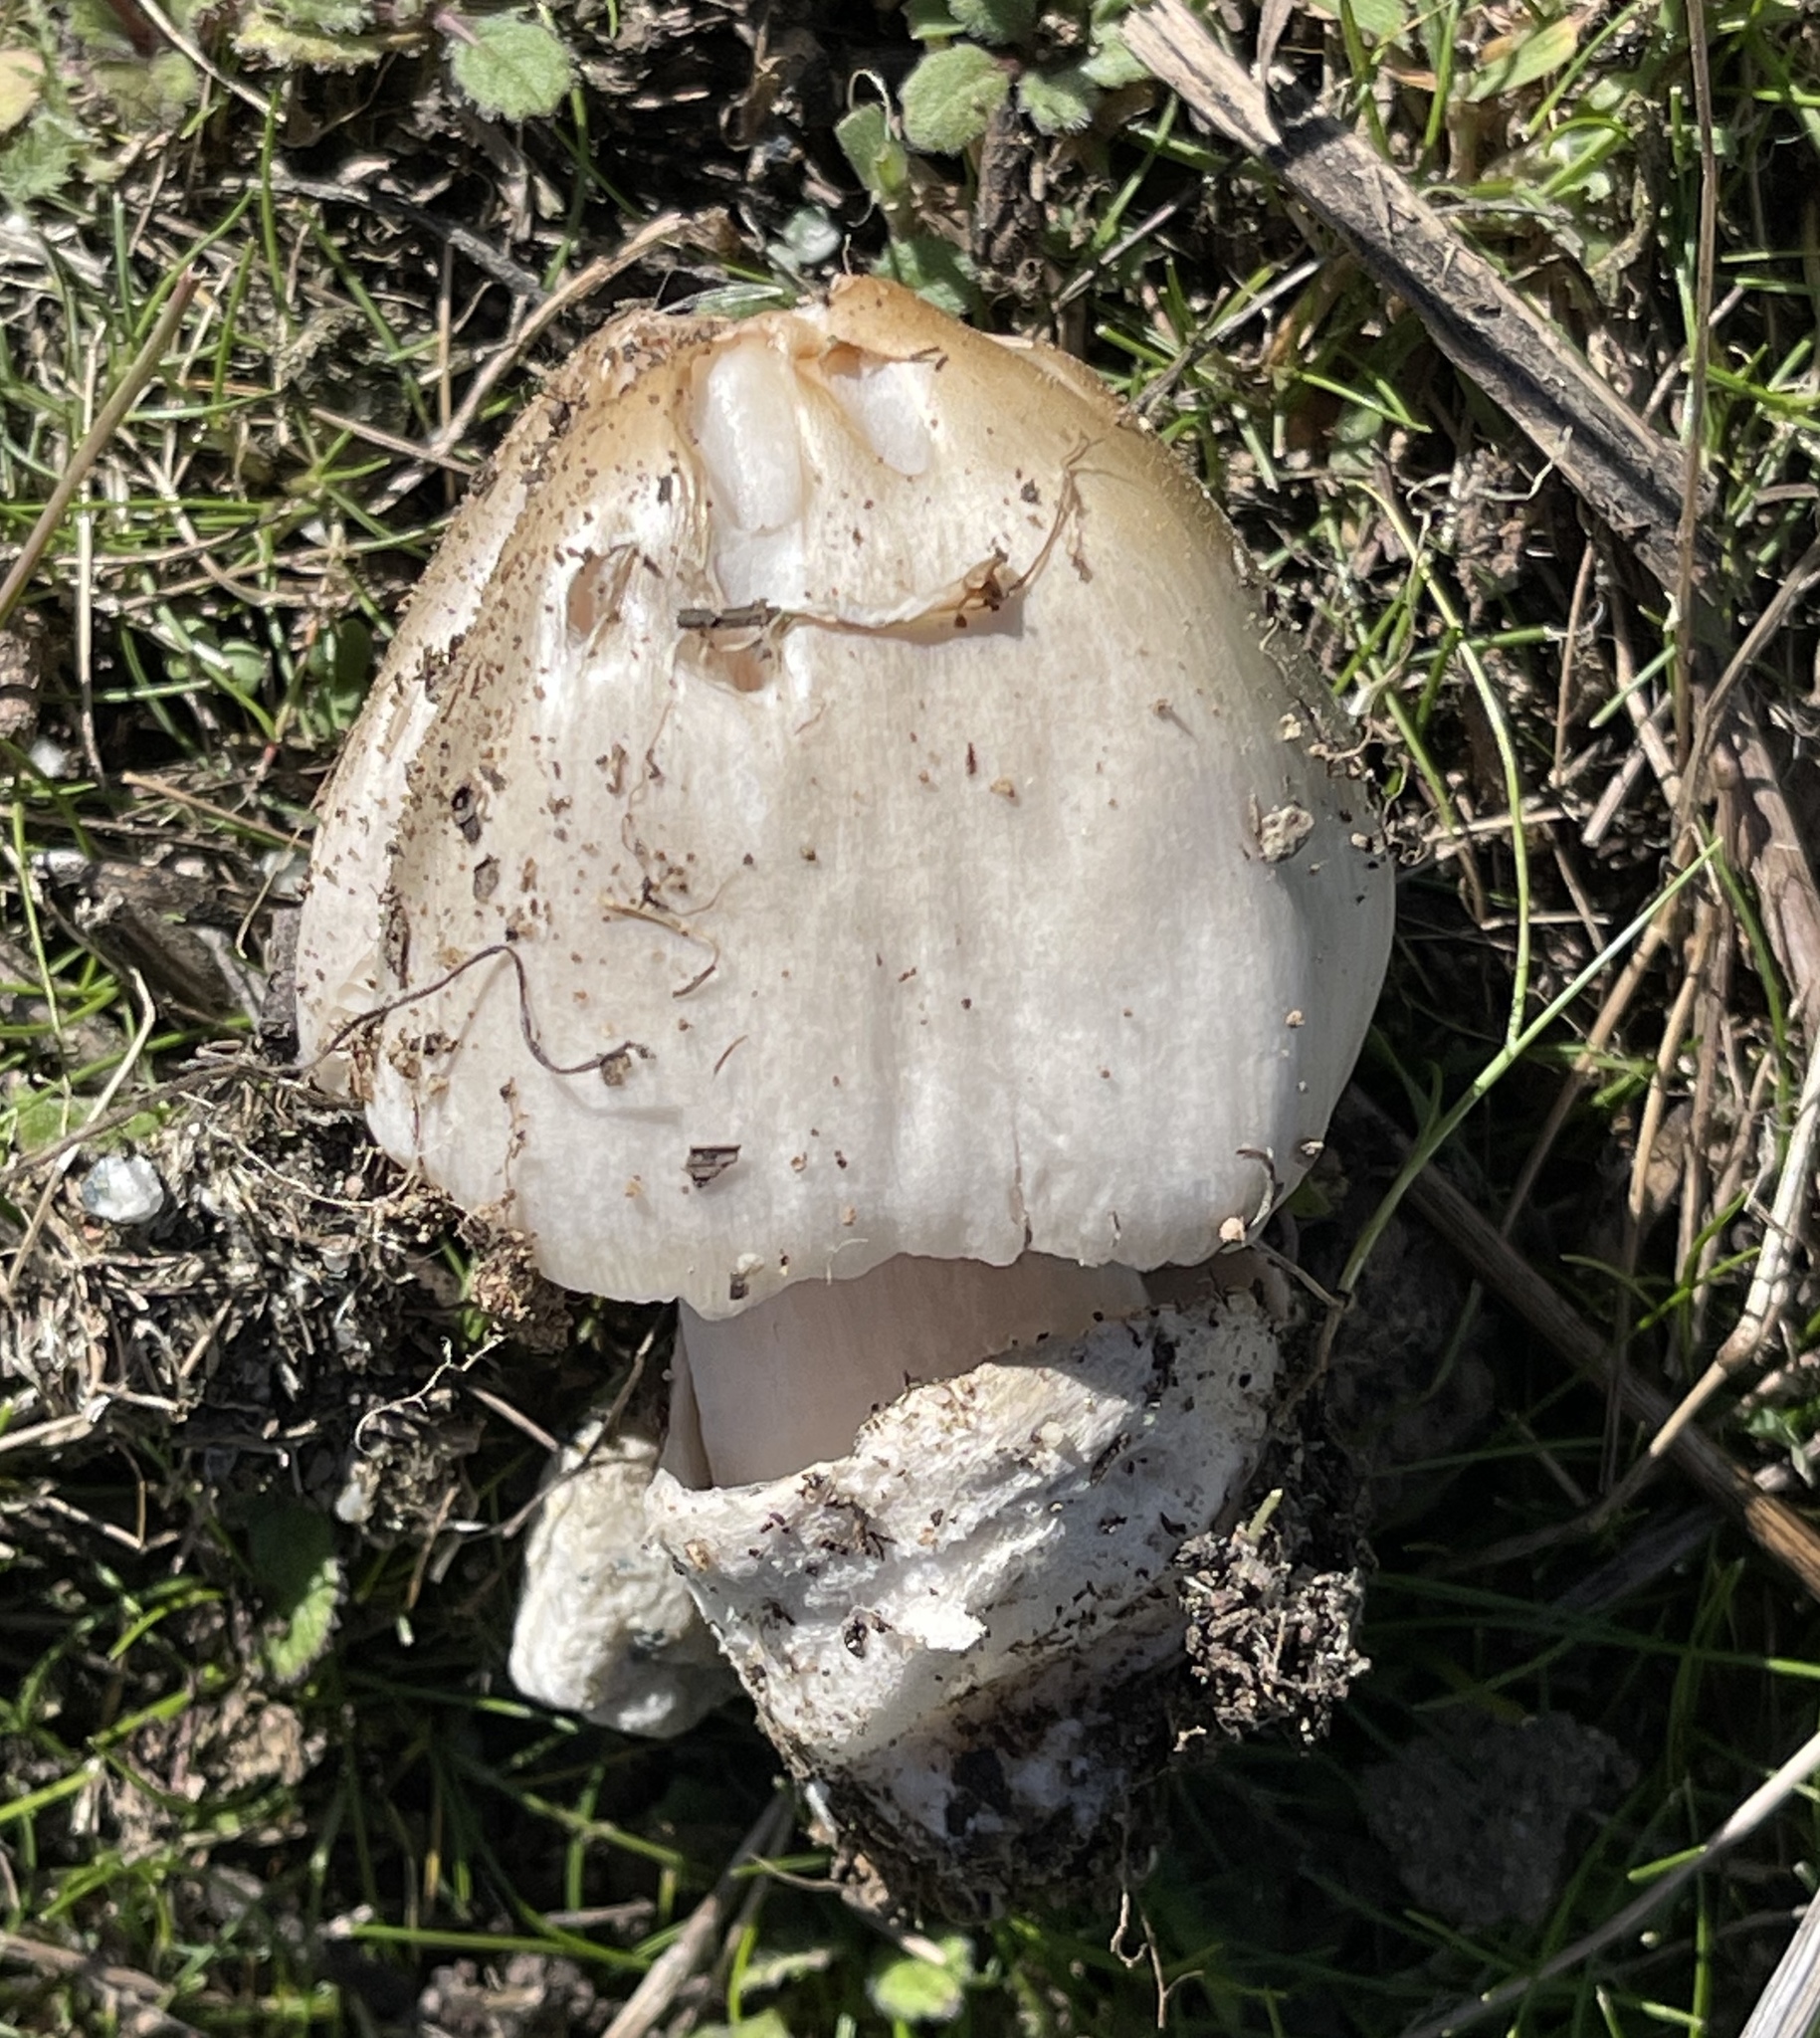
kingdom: Fungi
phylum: Basidiomycota
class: Agaricomycetes
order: Agaricales
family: Pluteaceae
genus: Volvopluteus
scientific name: Volvopluteus gloiocephalus
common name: Stubble rosegill
